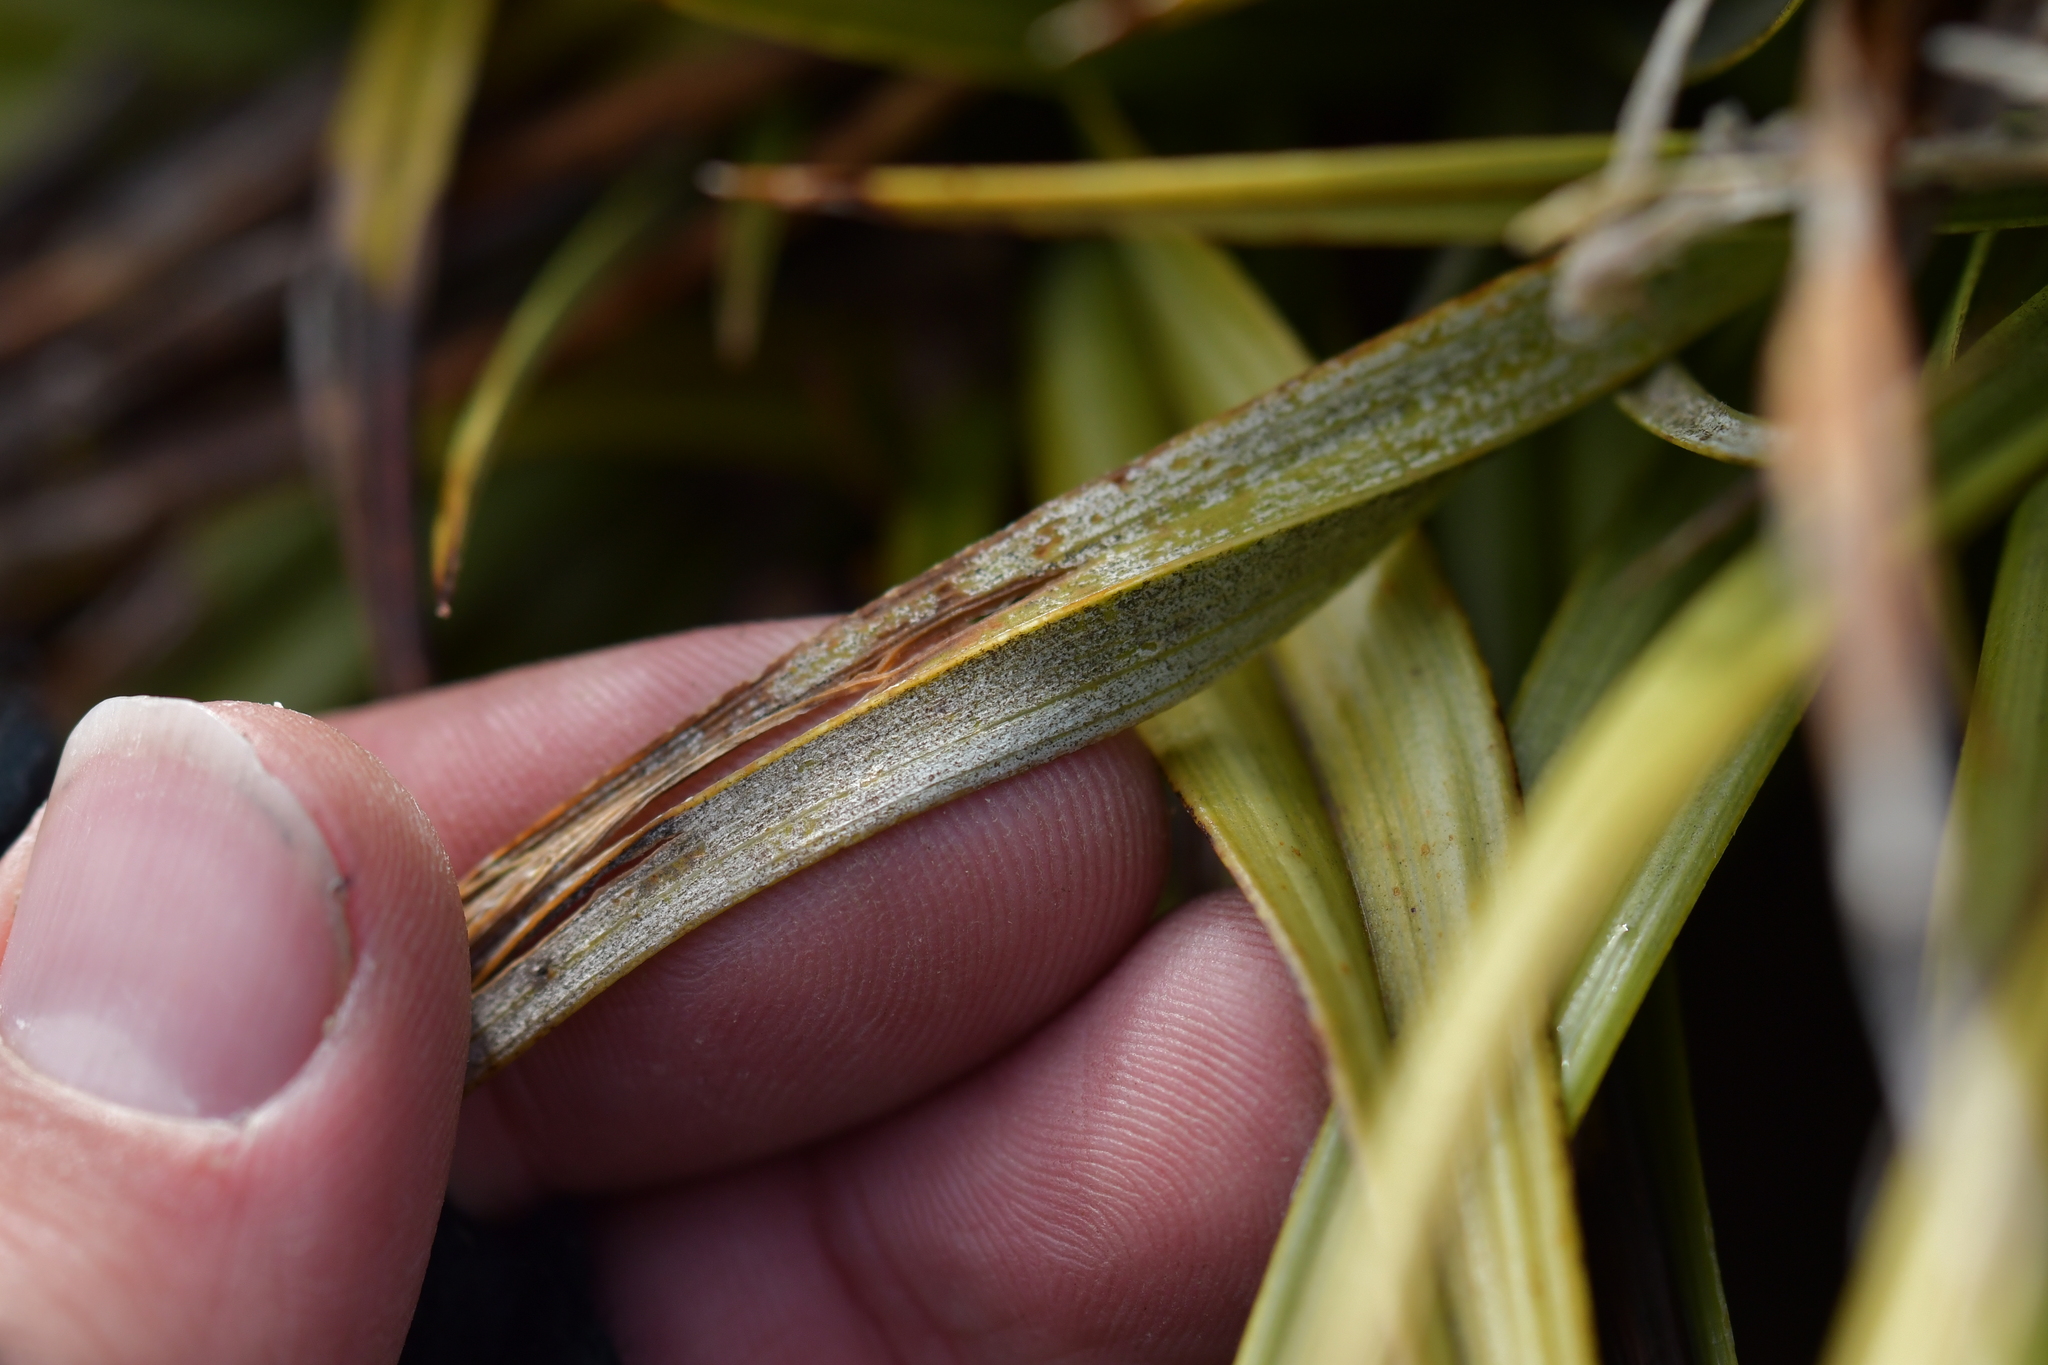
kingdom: Plantae
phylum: Tracheophyta
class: Liliopsida
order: Asparagales
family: Asteliaceae
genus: Astelia
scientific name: Astelia petriei
